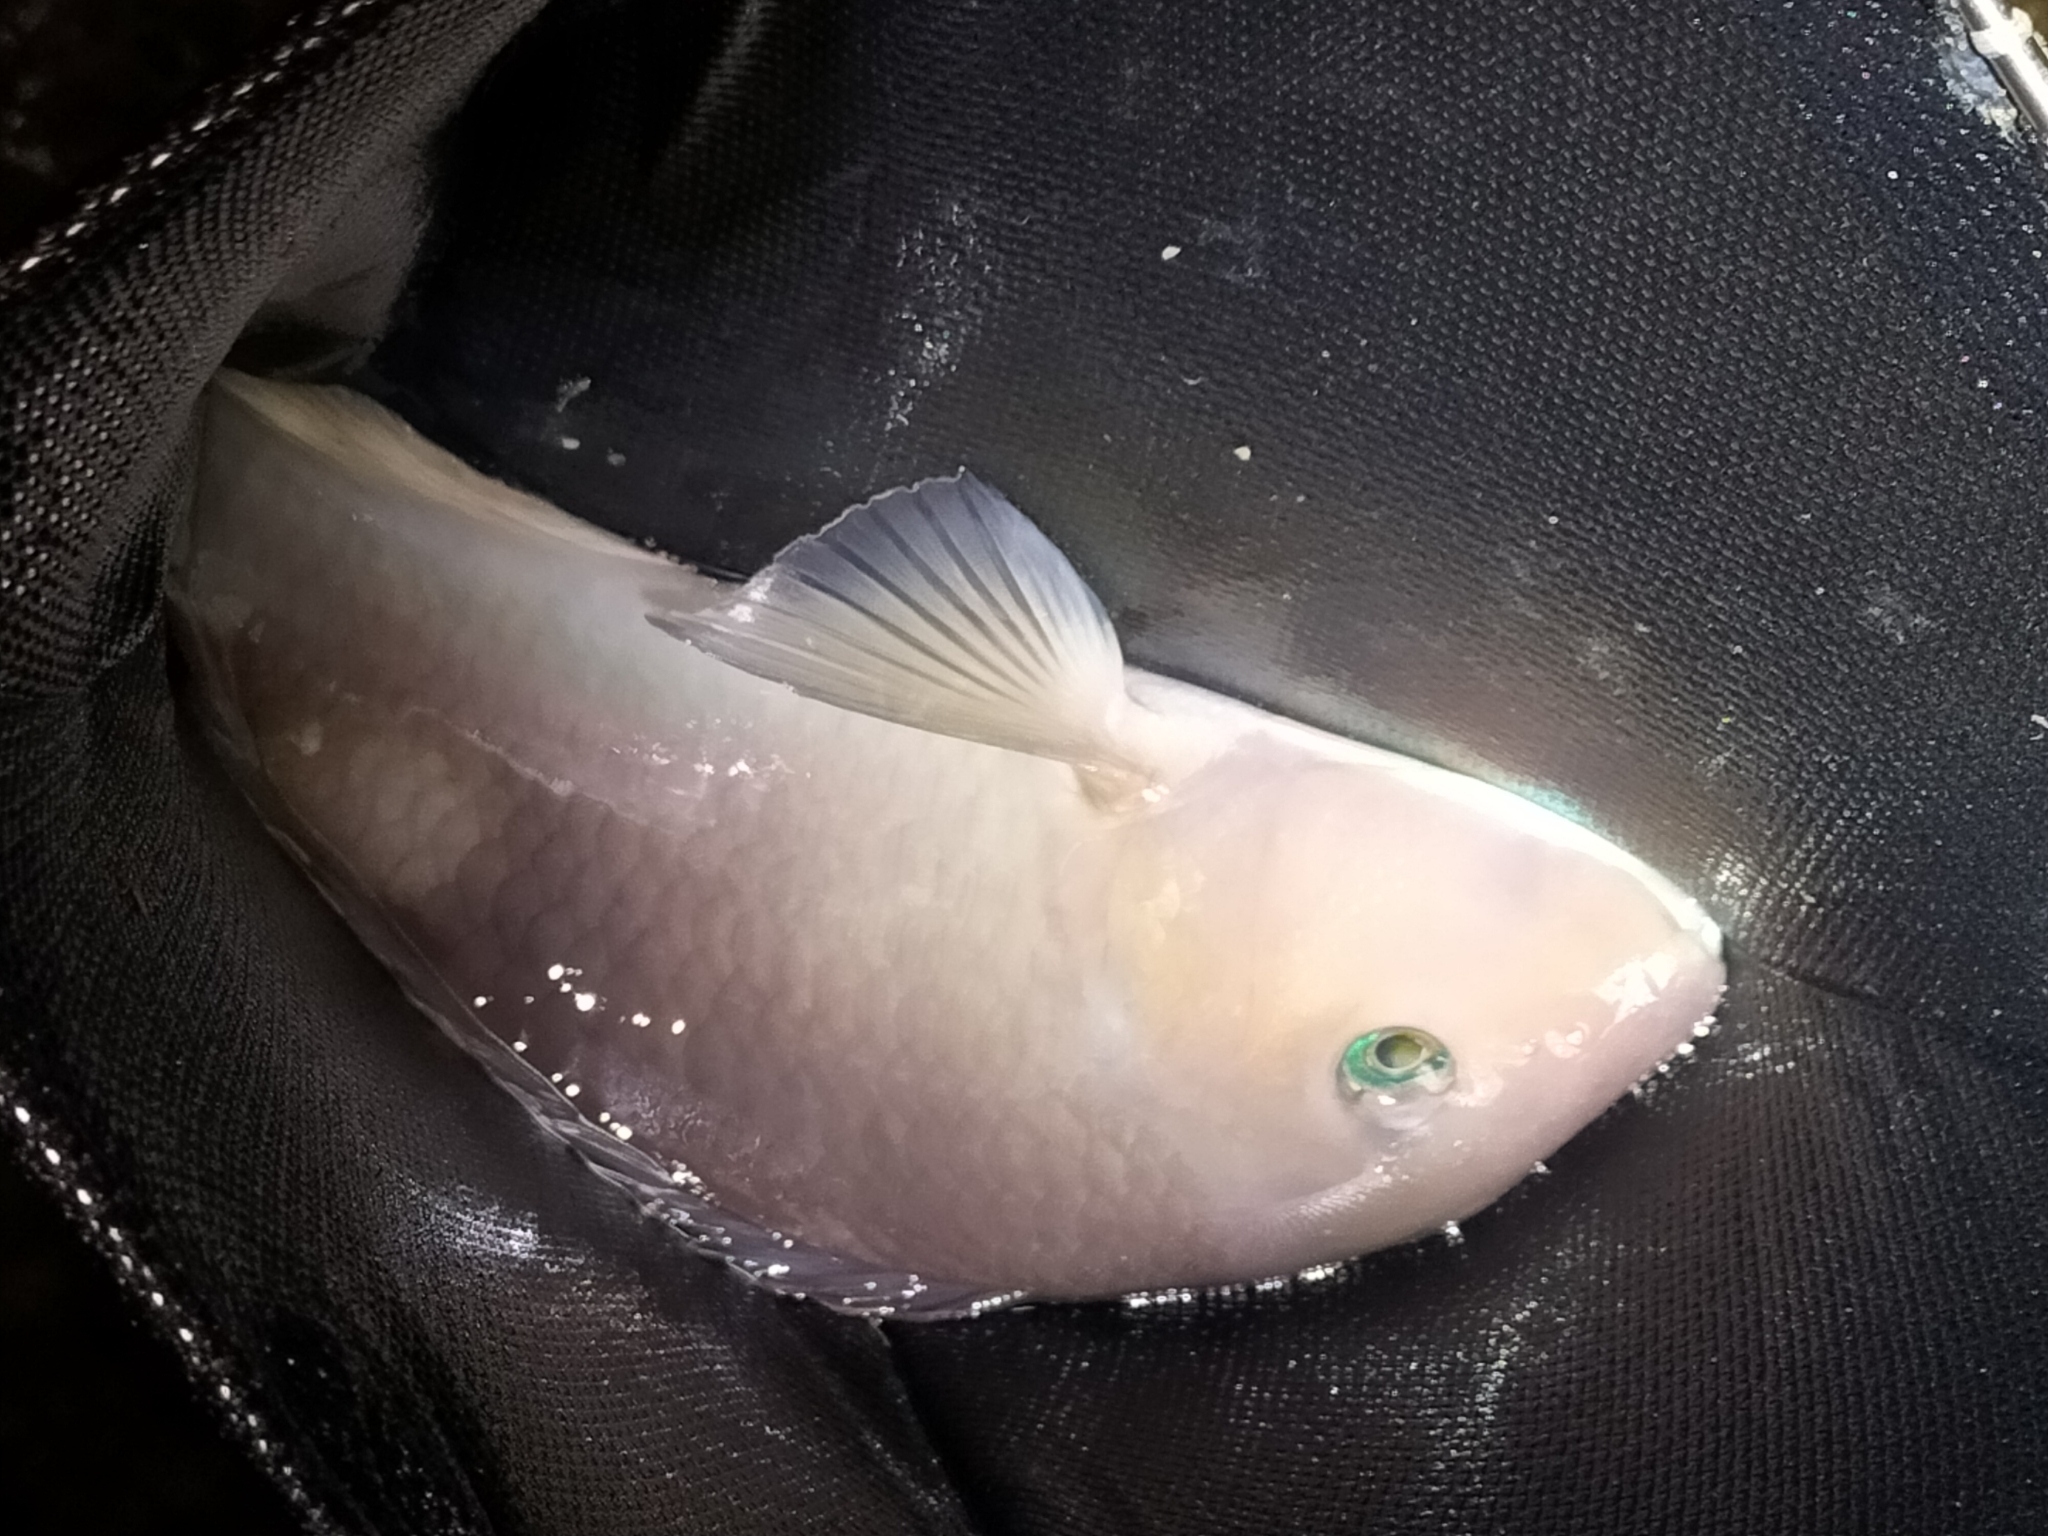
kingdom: Animalia
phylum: Chordata
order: Perciformes
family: Labridae
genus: Choerodon
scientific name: Choerodon cyanodus
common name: Blue tuskfish
